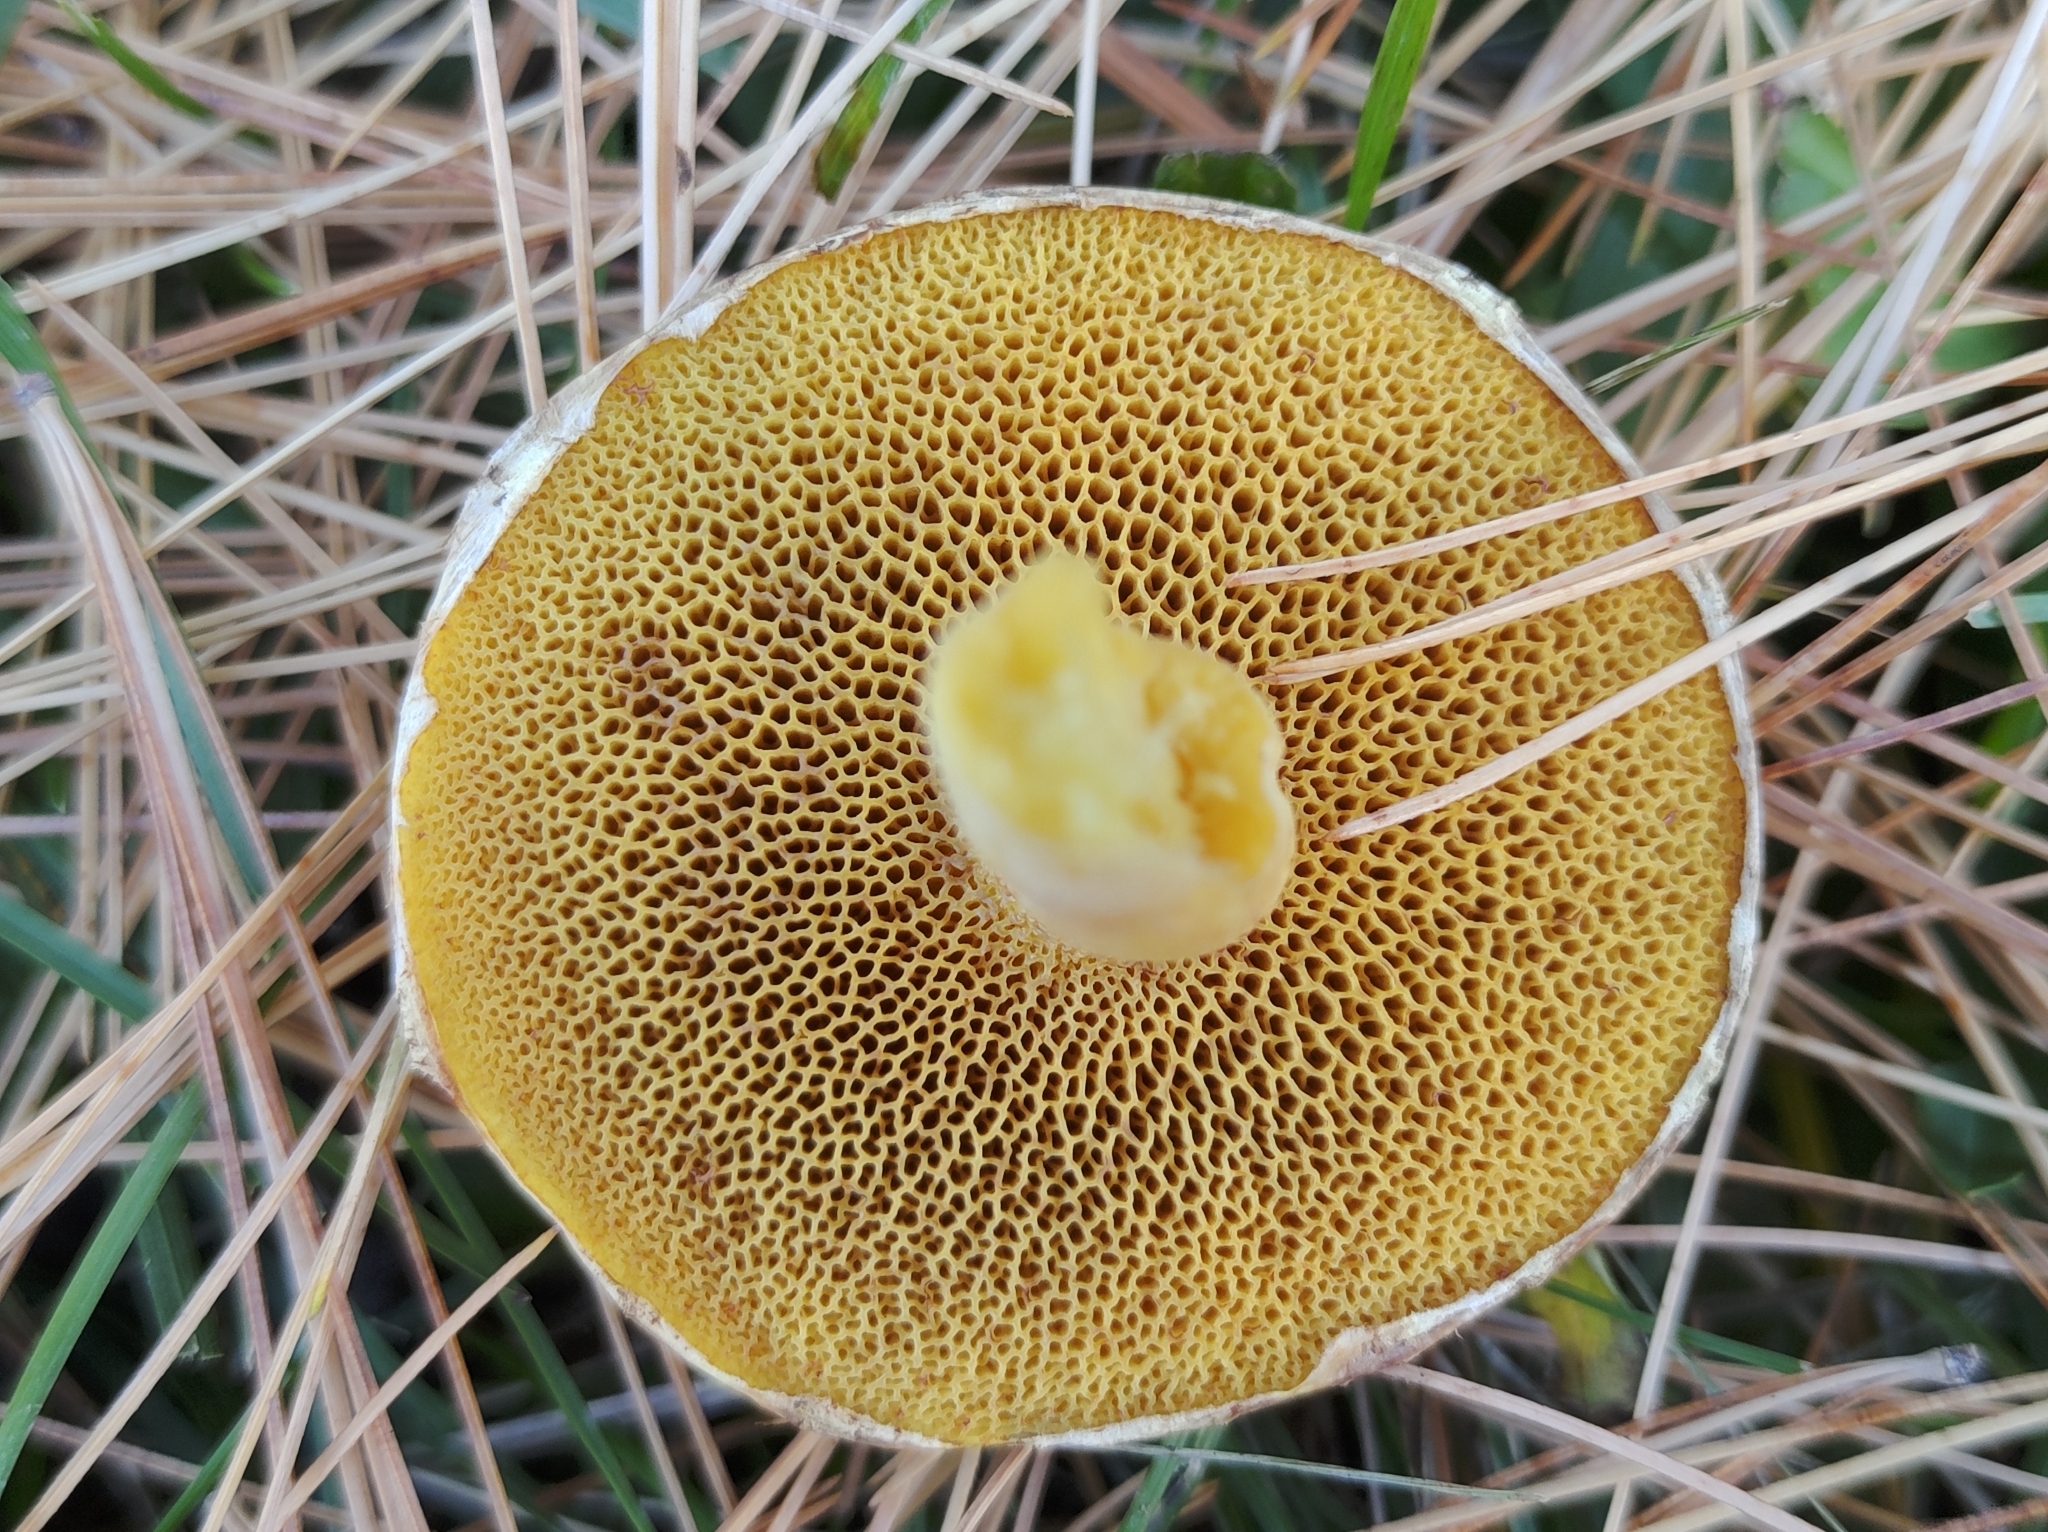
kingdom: Fungi
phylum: Basidiomycota
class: Agaricomycetes
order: Boletales
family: Suillaceae
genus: Suillus
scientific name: Suillus americanus
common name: Chicken fat mushroom
